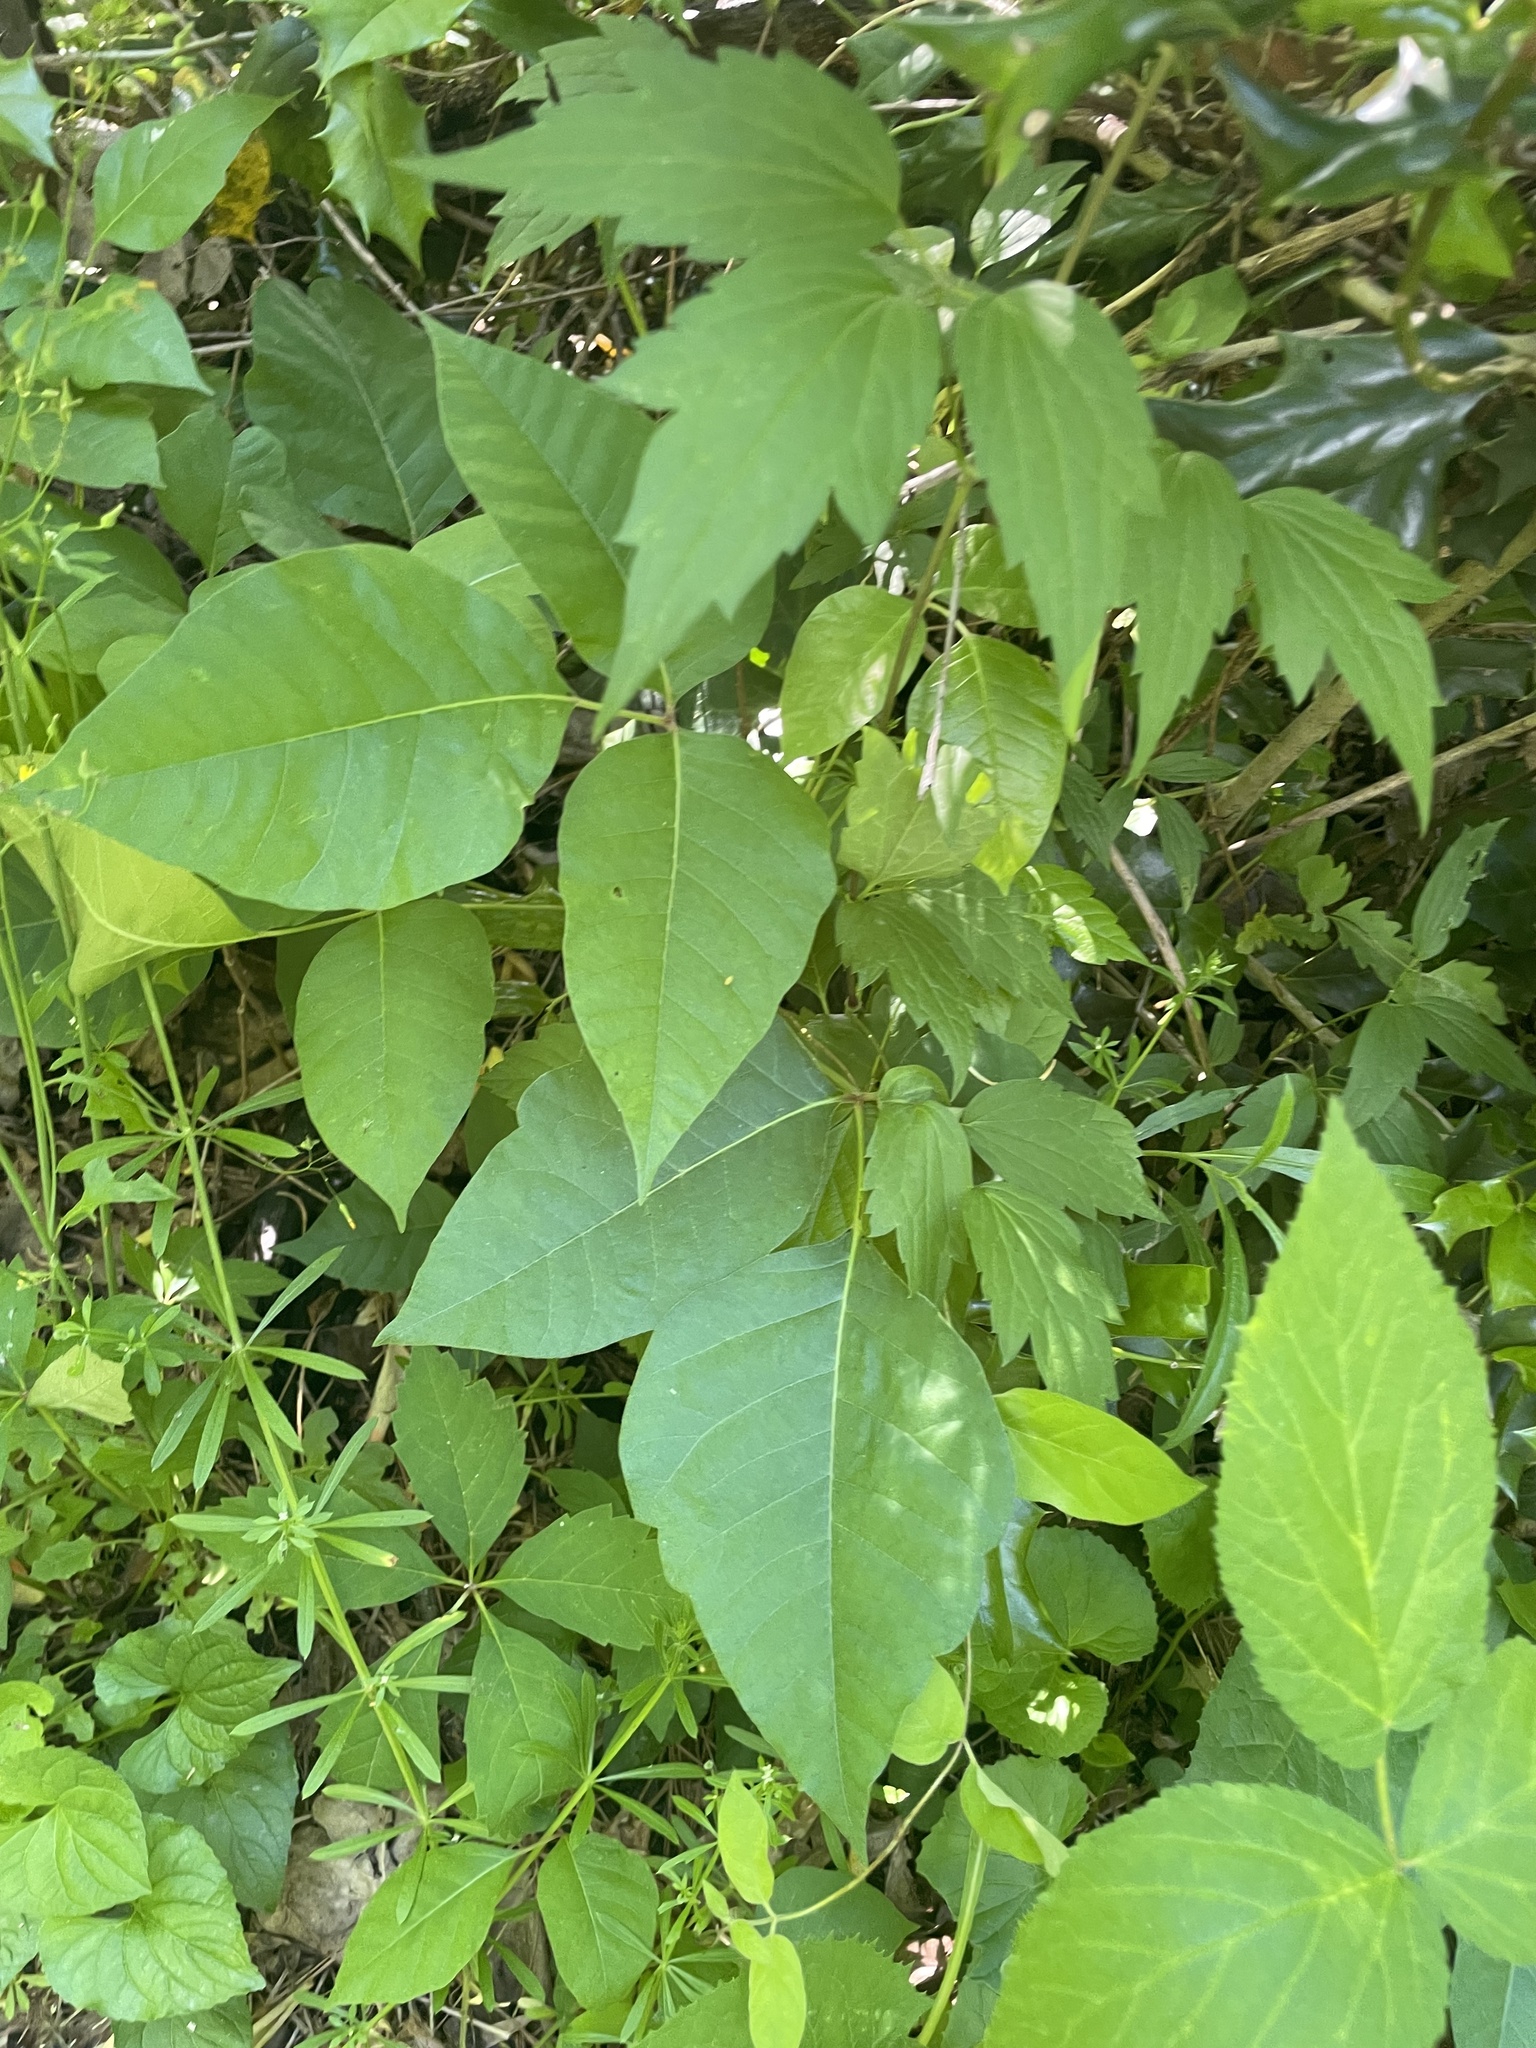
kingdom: Plantae
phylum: Tracheophyta
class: Magnoliopsida
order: Sapindales
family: Anacardiaceae
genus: Toxicodendron
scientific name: Toxicodendron radicans
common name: Poison ivy
